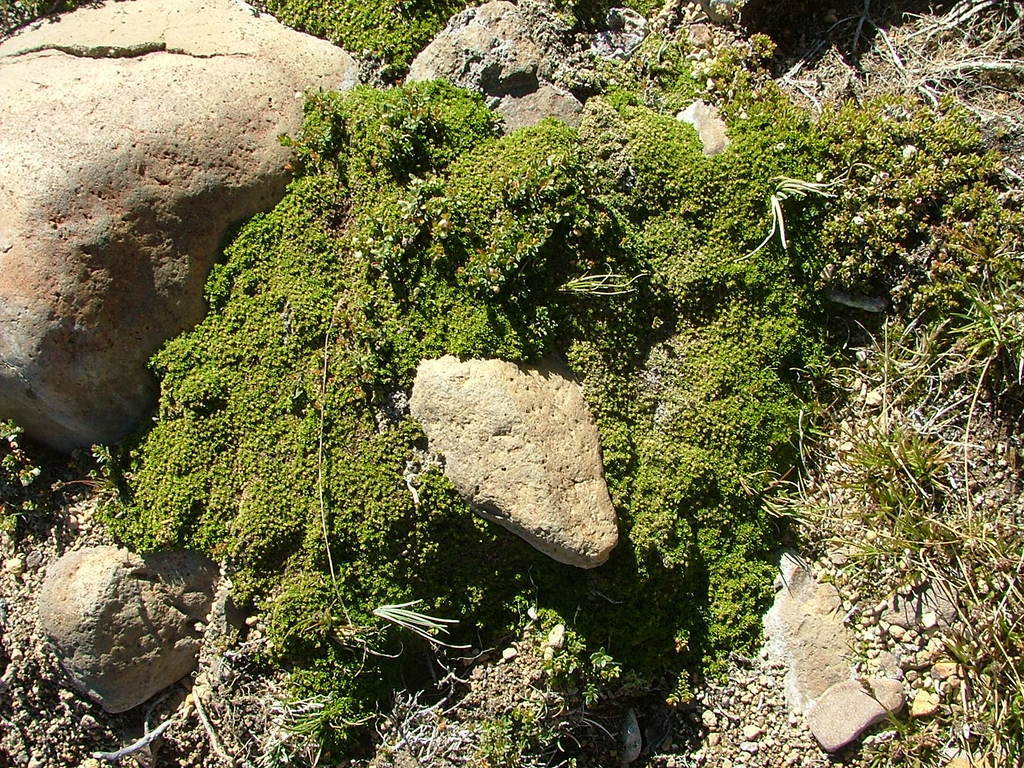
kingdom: Plantae
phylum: Tracheophyta
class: Magnoliopsida
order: Rosales
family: Rhamnaceae
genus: Discaria
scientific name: Discaria nana
